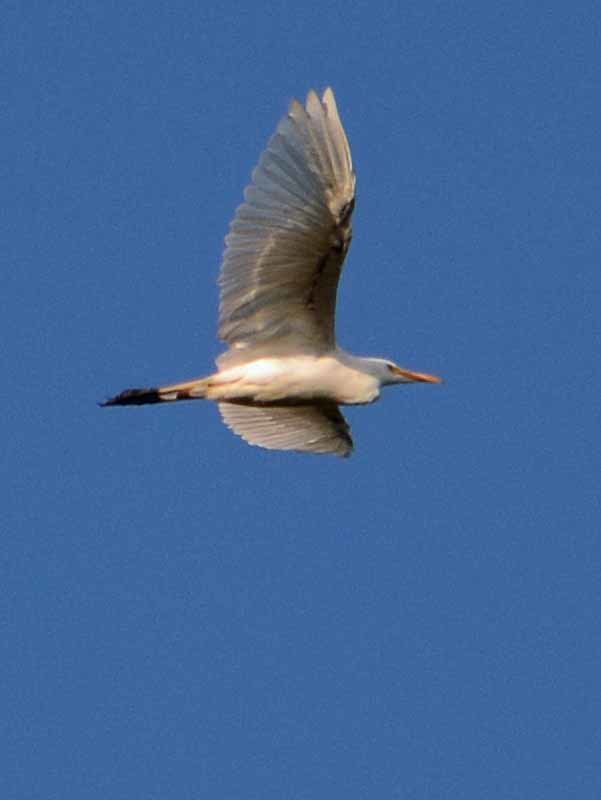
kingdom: Animalia
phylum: Chordata
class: Aves
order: Pelecaniformes
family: Ardeidae
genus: Ardea
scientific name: Ardea alba
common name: Great egret
